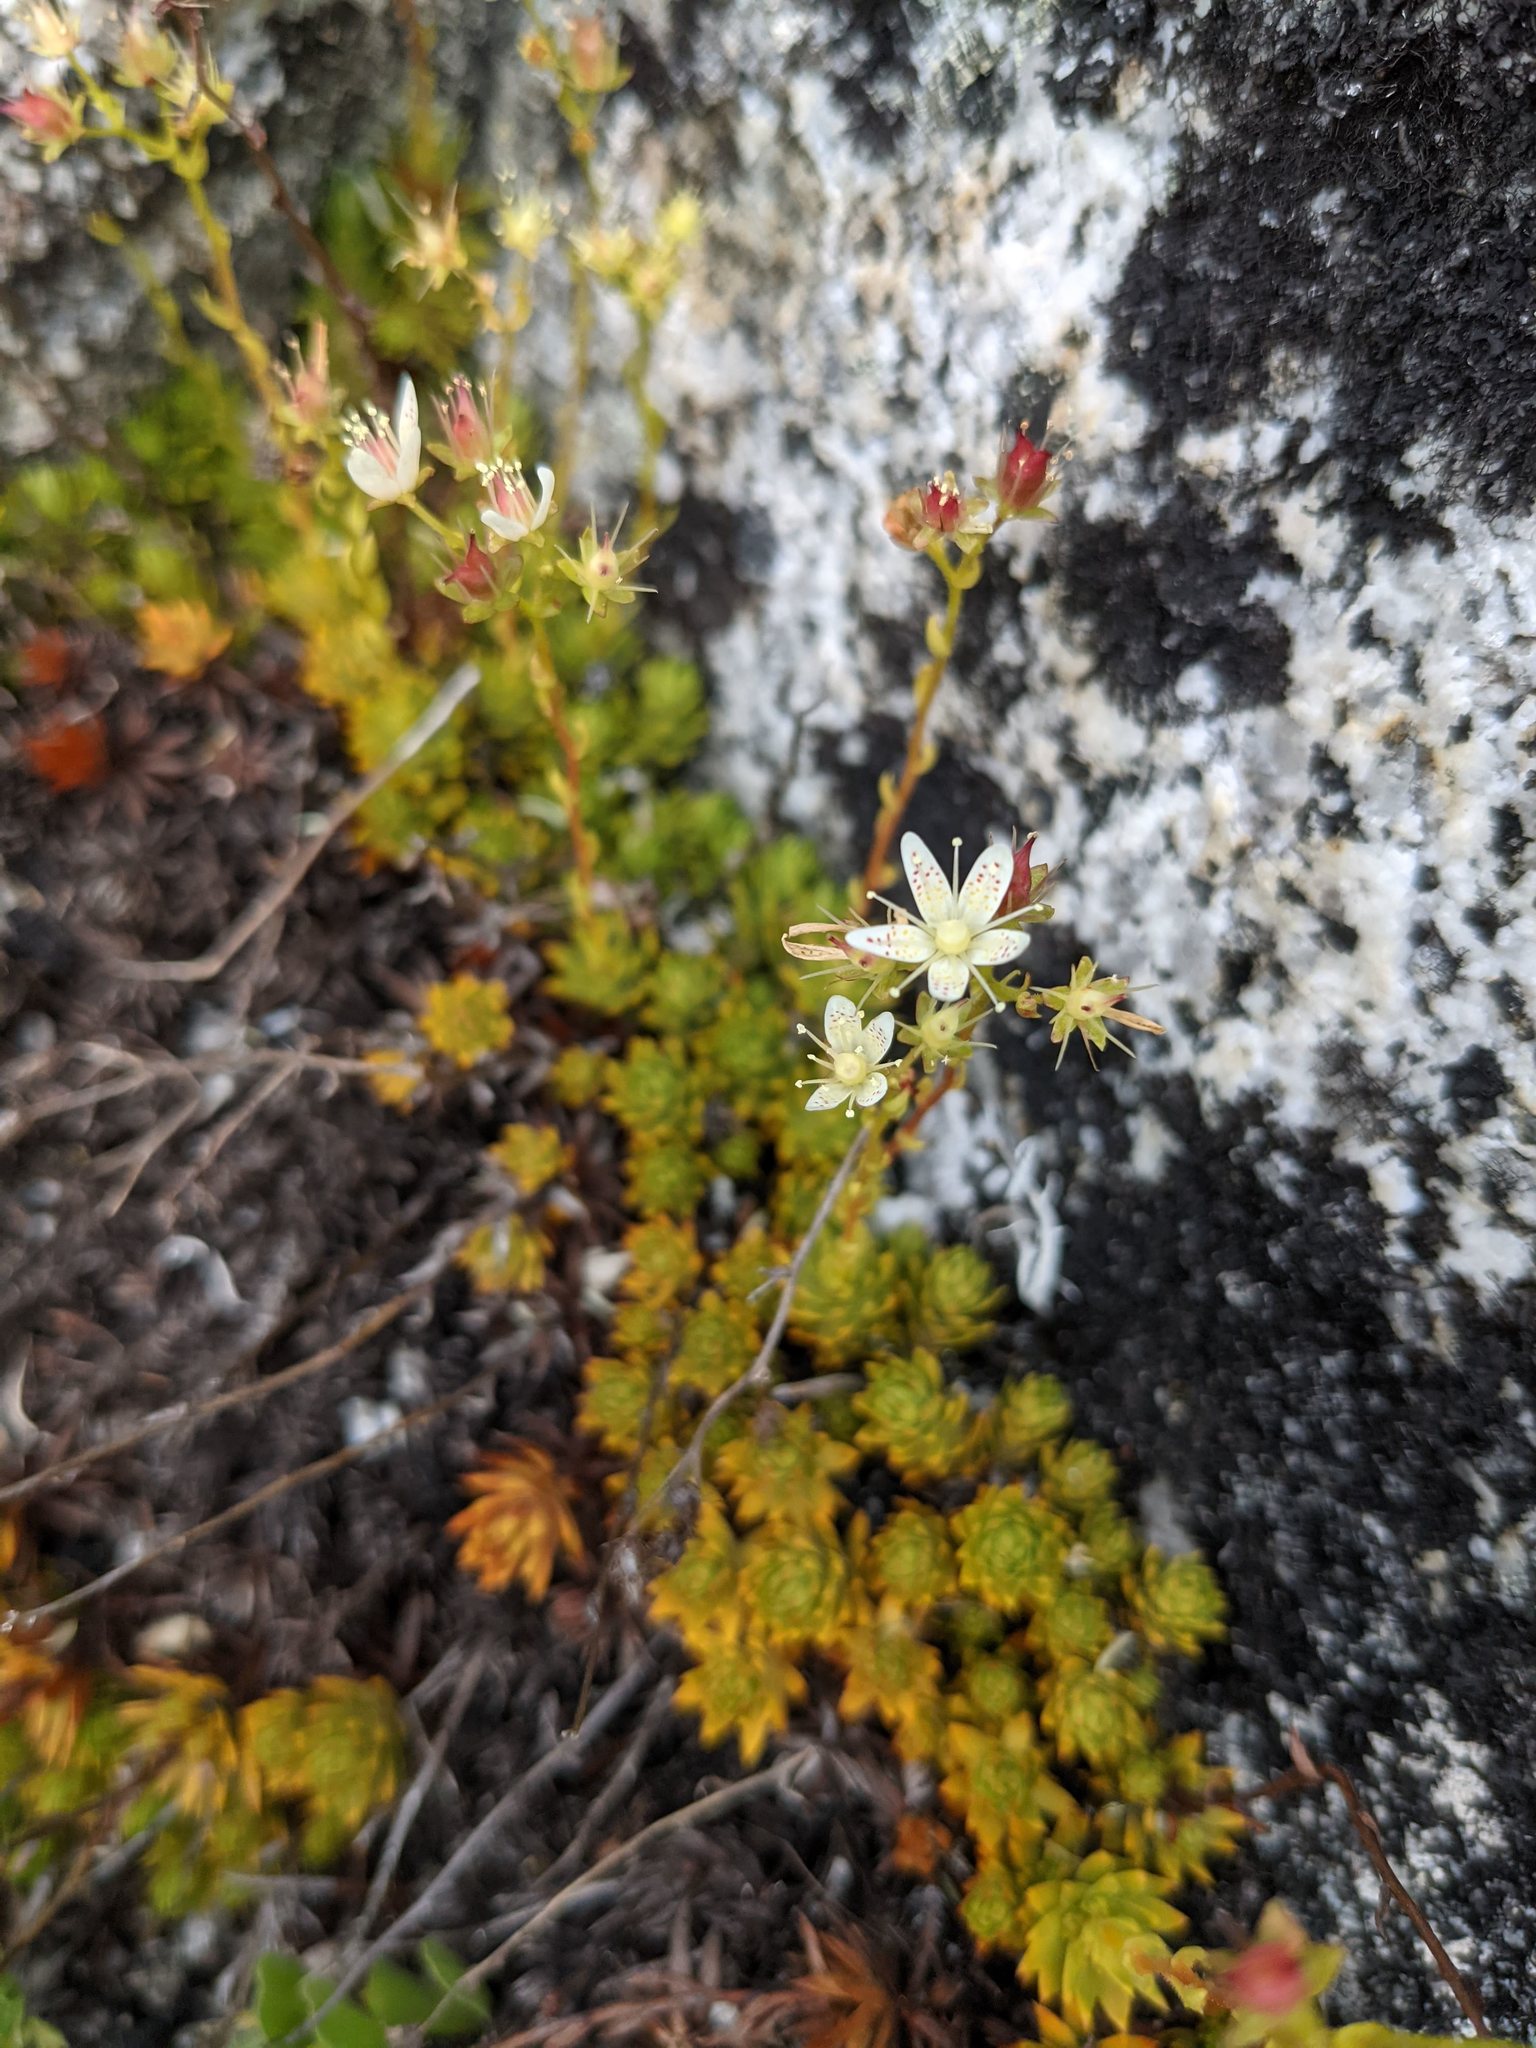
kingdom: Plantae
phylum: Tracheophyta
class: Magnoliopsida
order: Saxifragales
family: Saxifragaceae
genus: Saxifraga
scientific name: Saxifraga bronchialis
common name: Matted saxifrage
